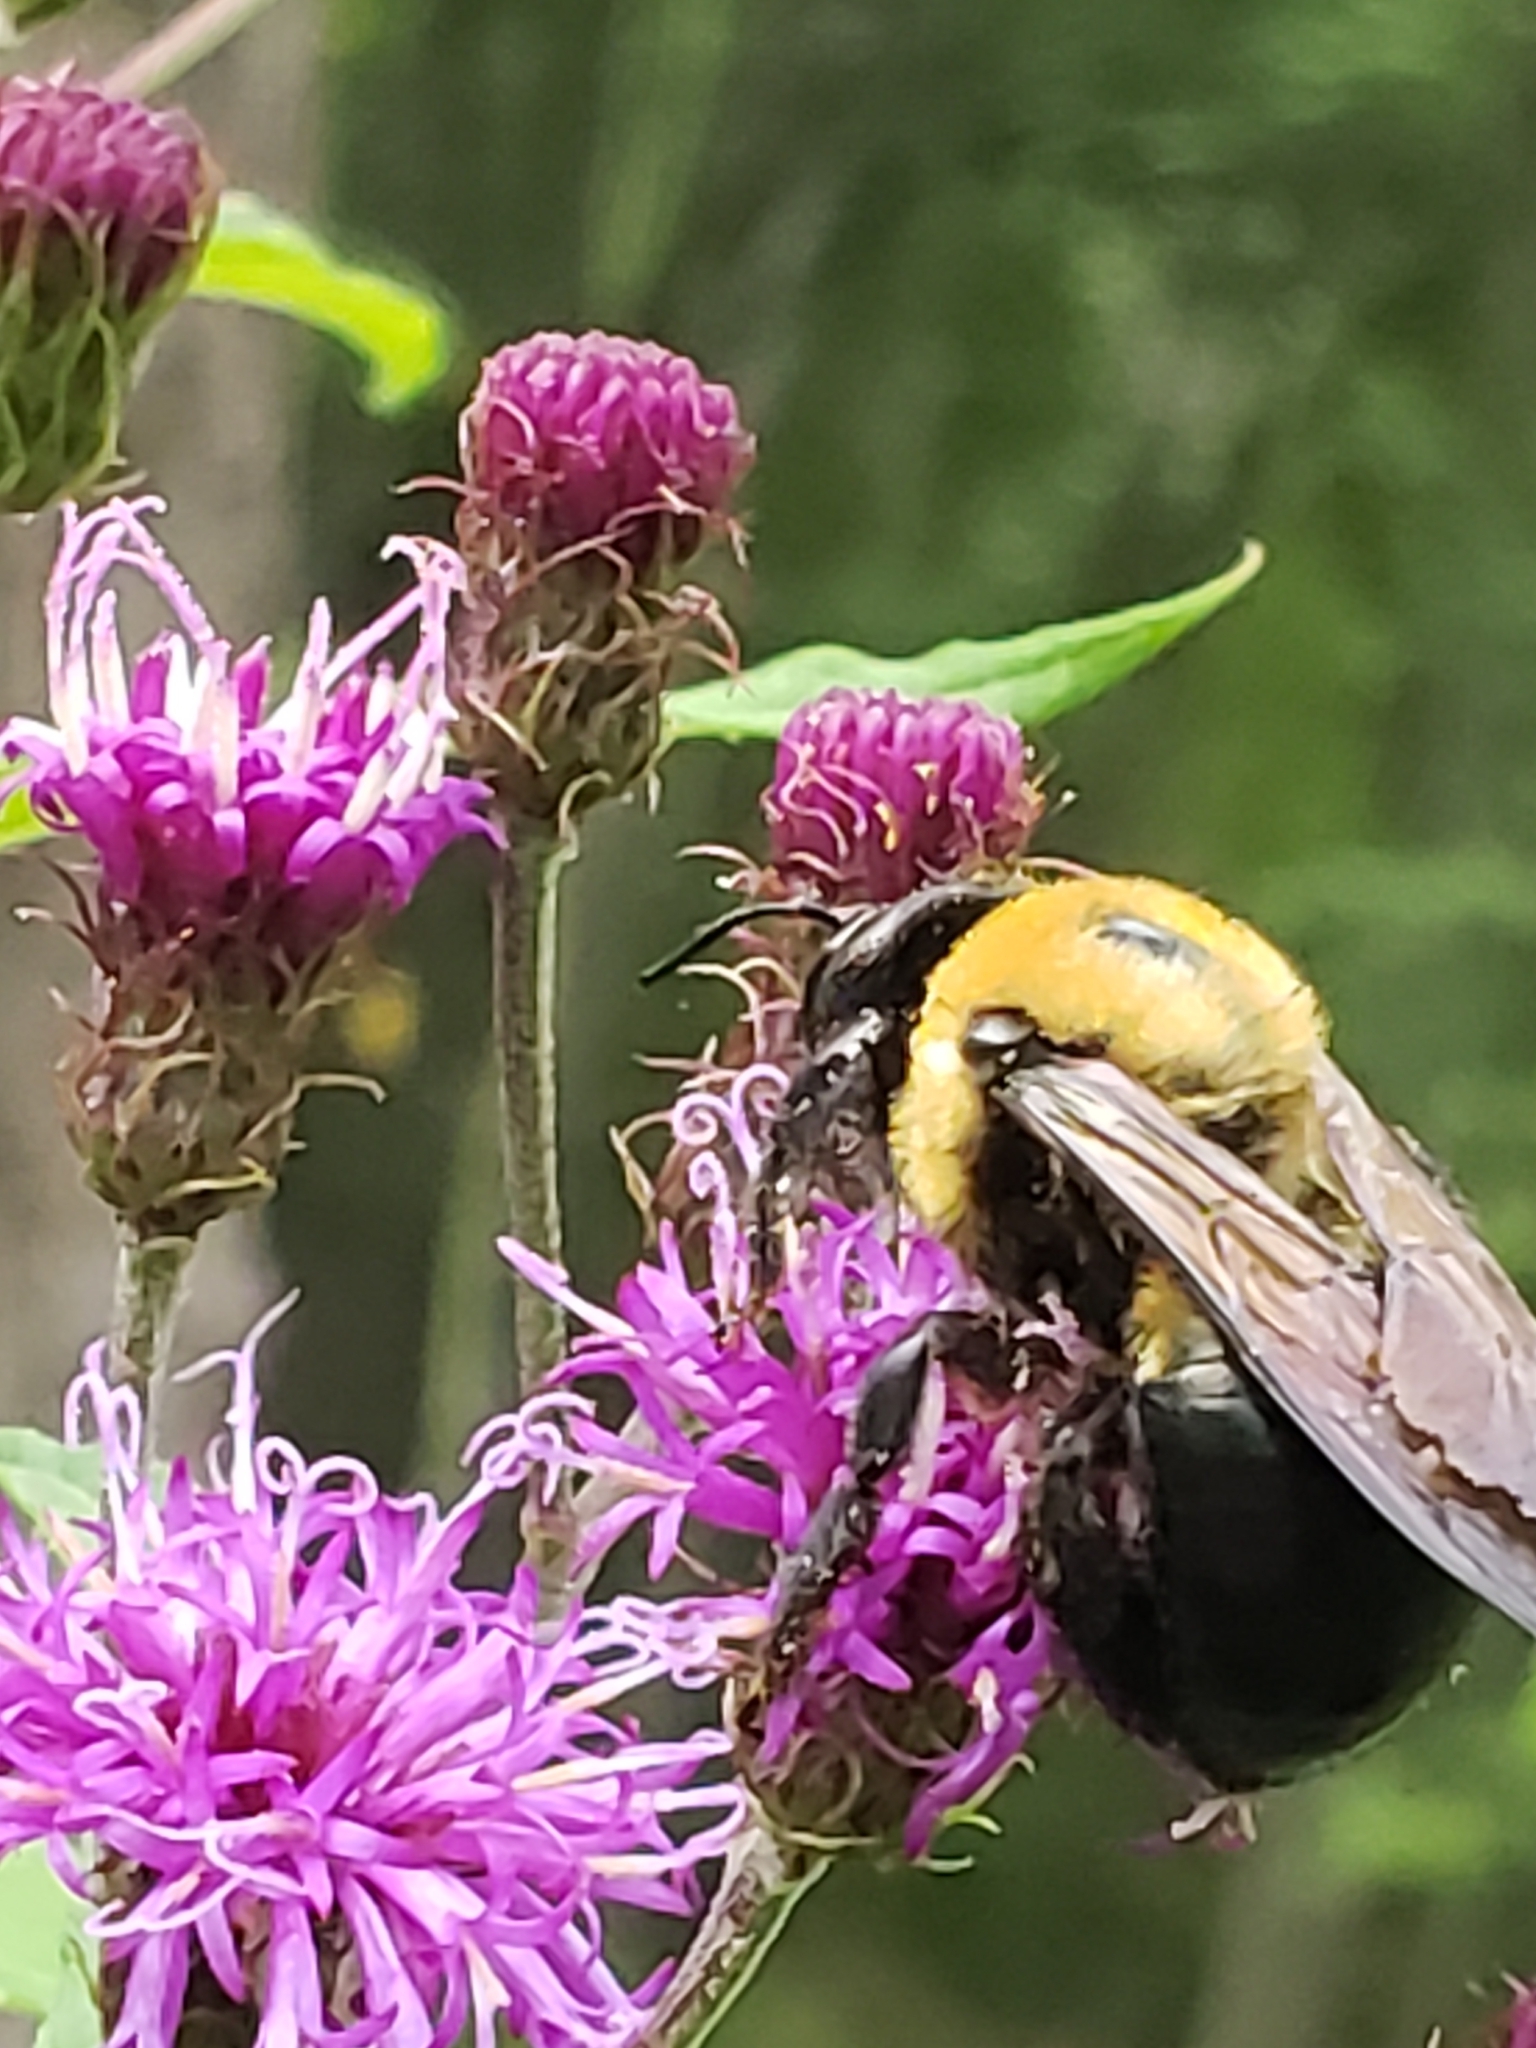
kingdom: Animalia
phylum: Arthropoda
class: Insecta
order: Hymenoptera
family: Apidae
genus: Xylocopa
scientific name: Xylocopa virginica
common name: Carpenter bee
